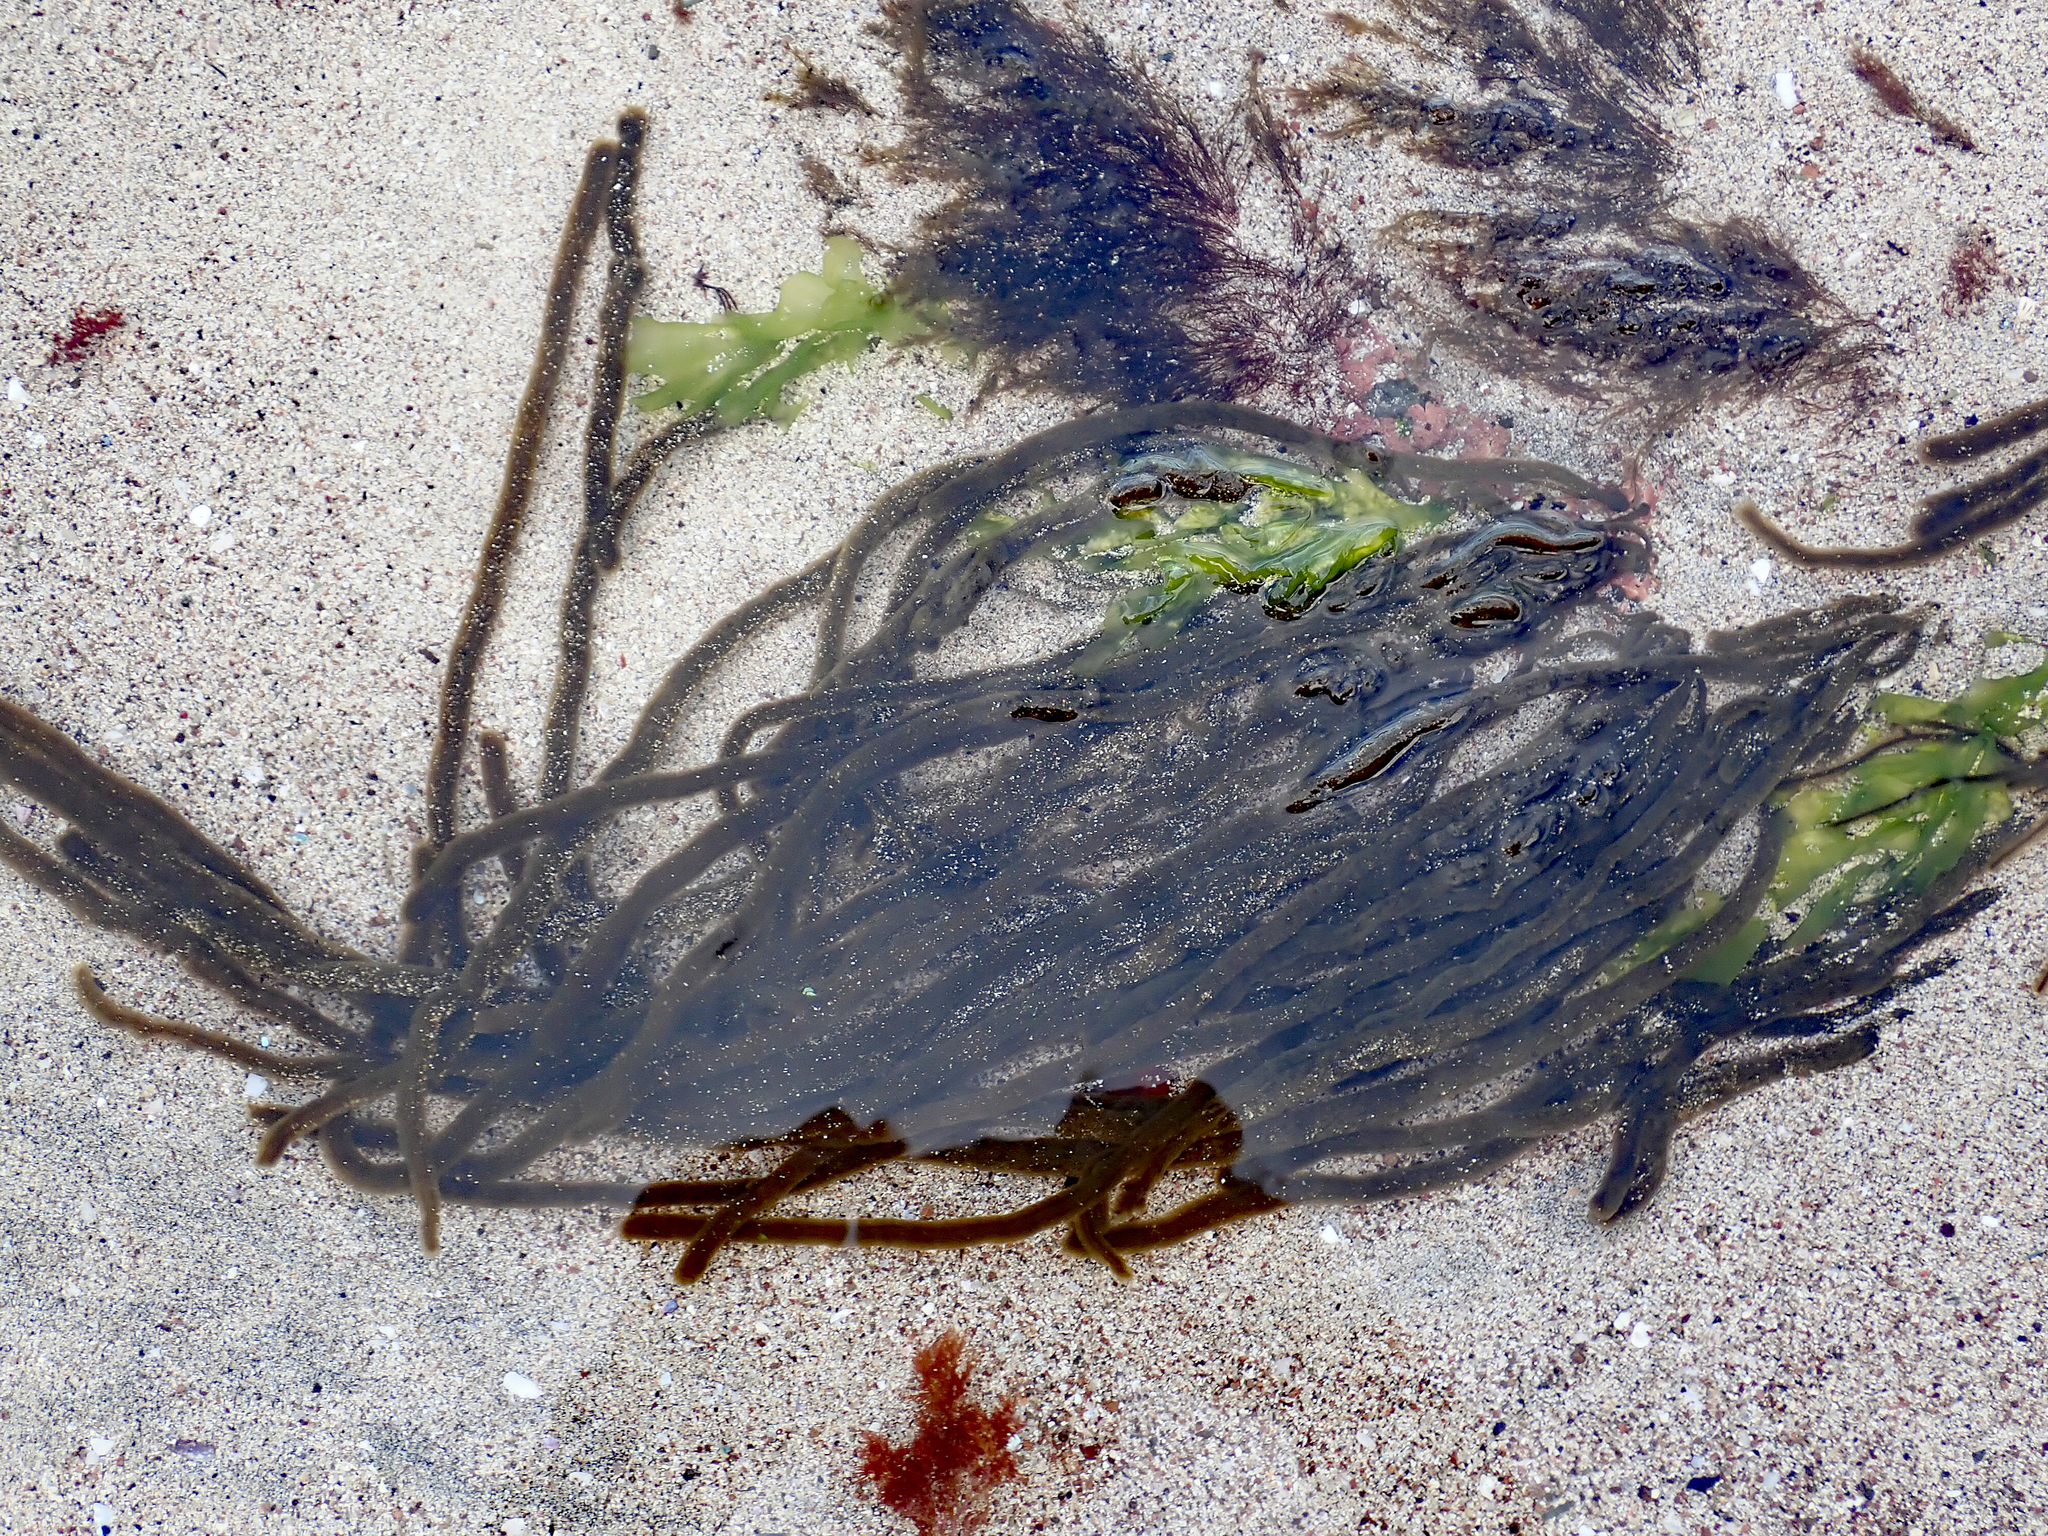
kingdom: Chromista
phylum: Ochrophyta
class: Phaeophyceae
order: Ectocarpales
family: Chordariaceae
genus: Myriogloea
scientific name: Myriogloea intestinalis
